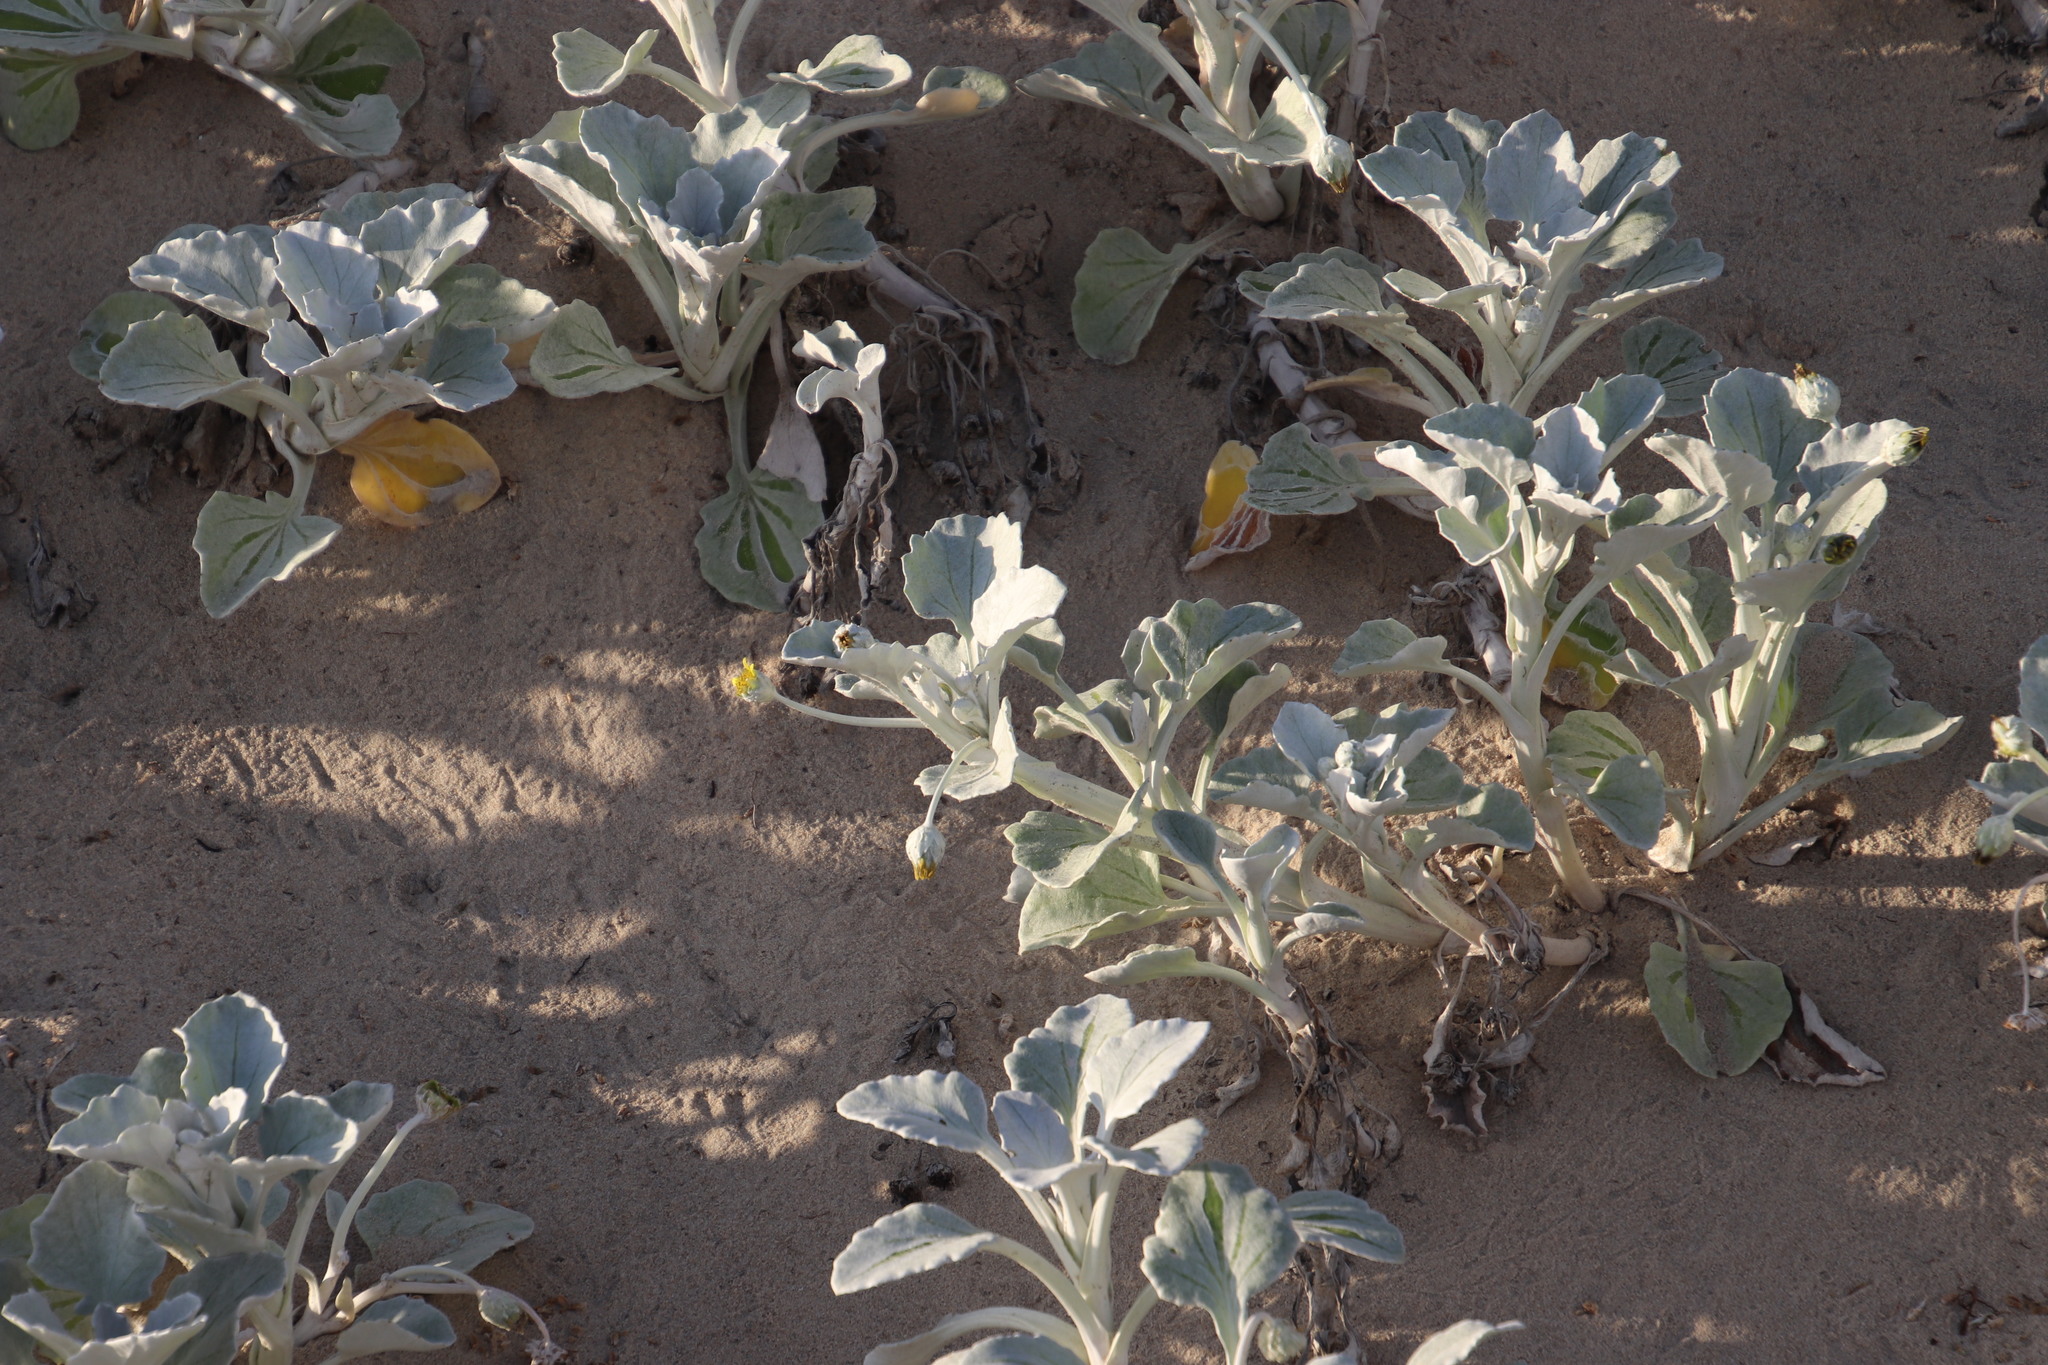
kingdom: Plantae
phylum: Tracheophyta
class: Magnoliopsida
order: Asterales
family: Asteraceae
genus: Arctotheca
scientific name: Arctotheca populifolia
